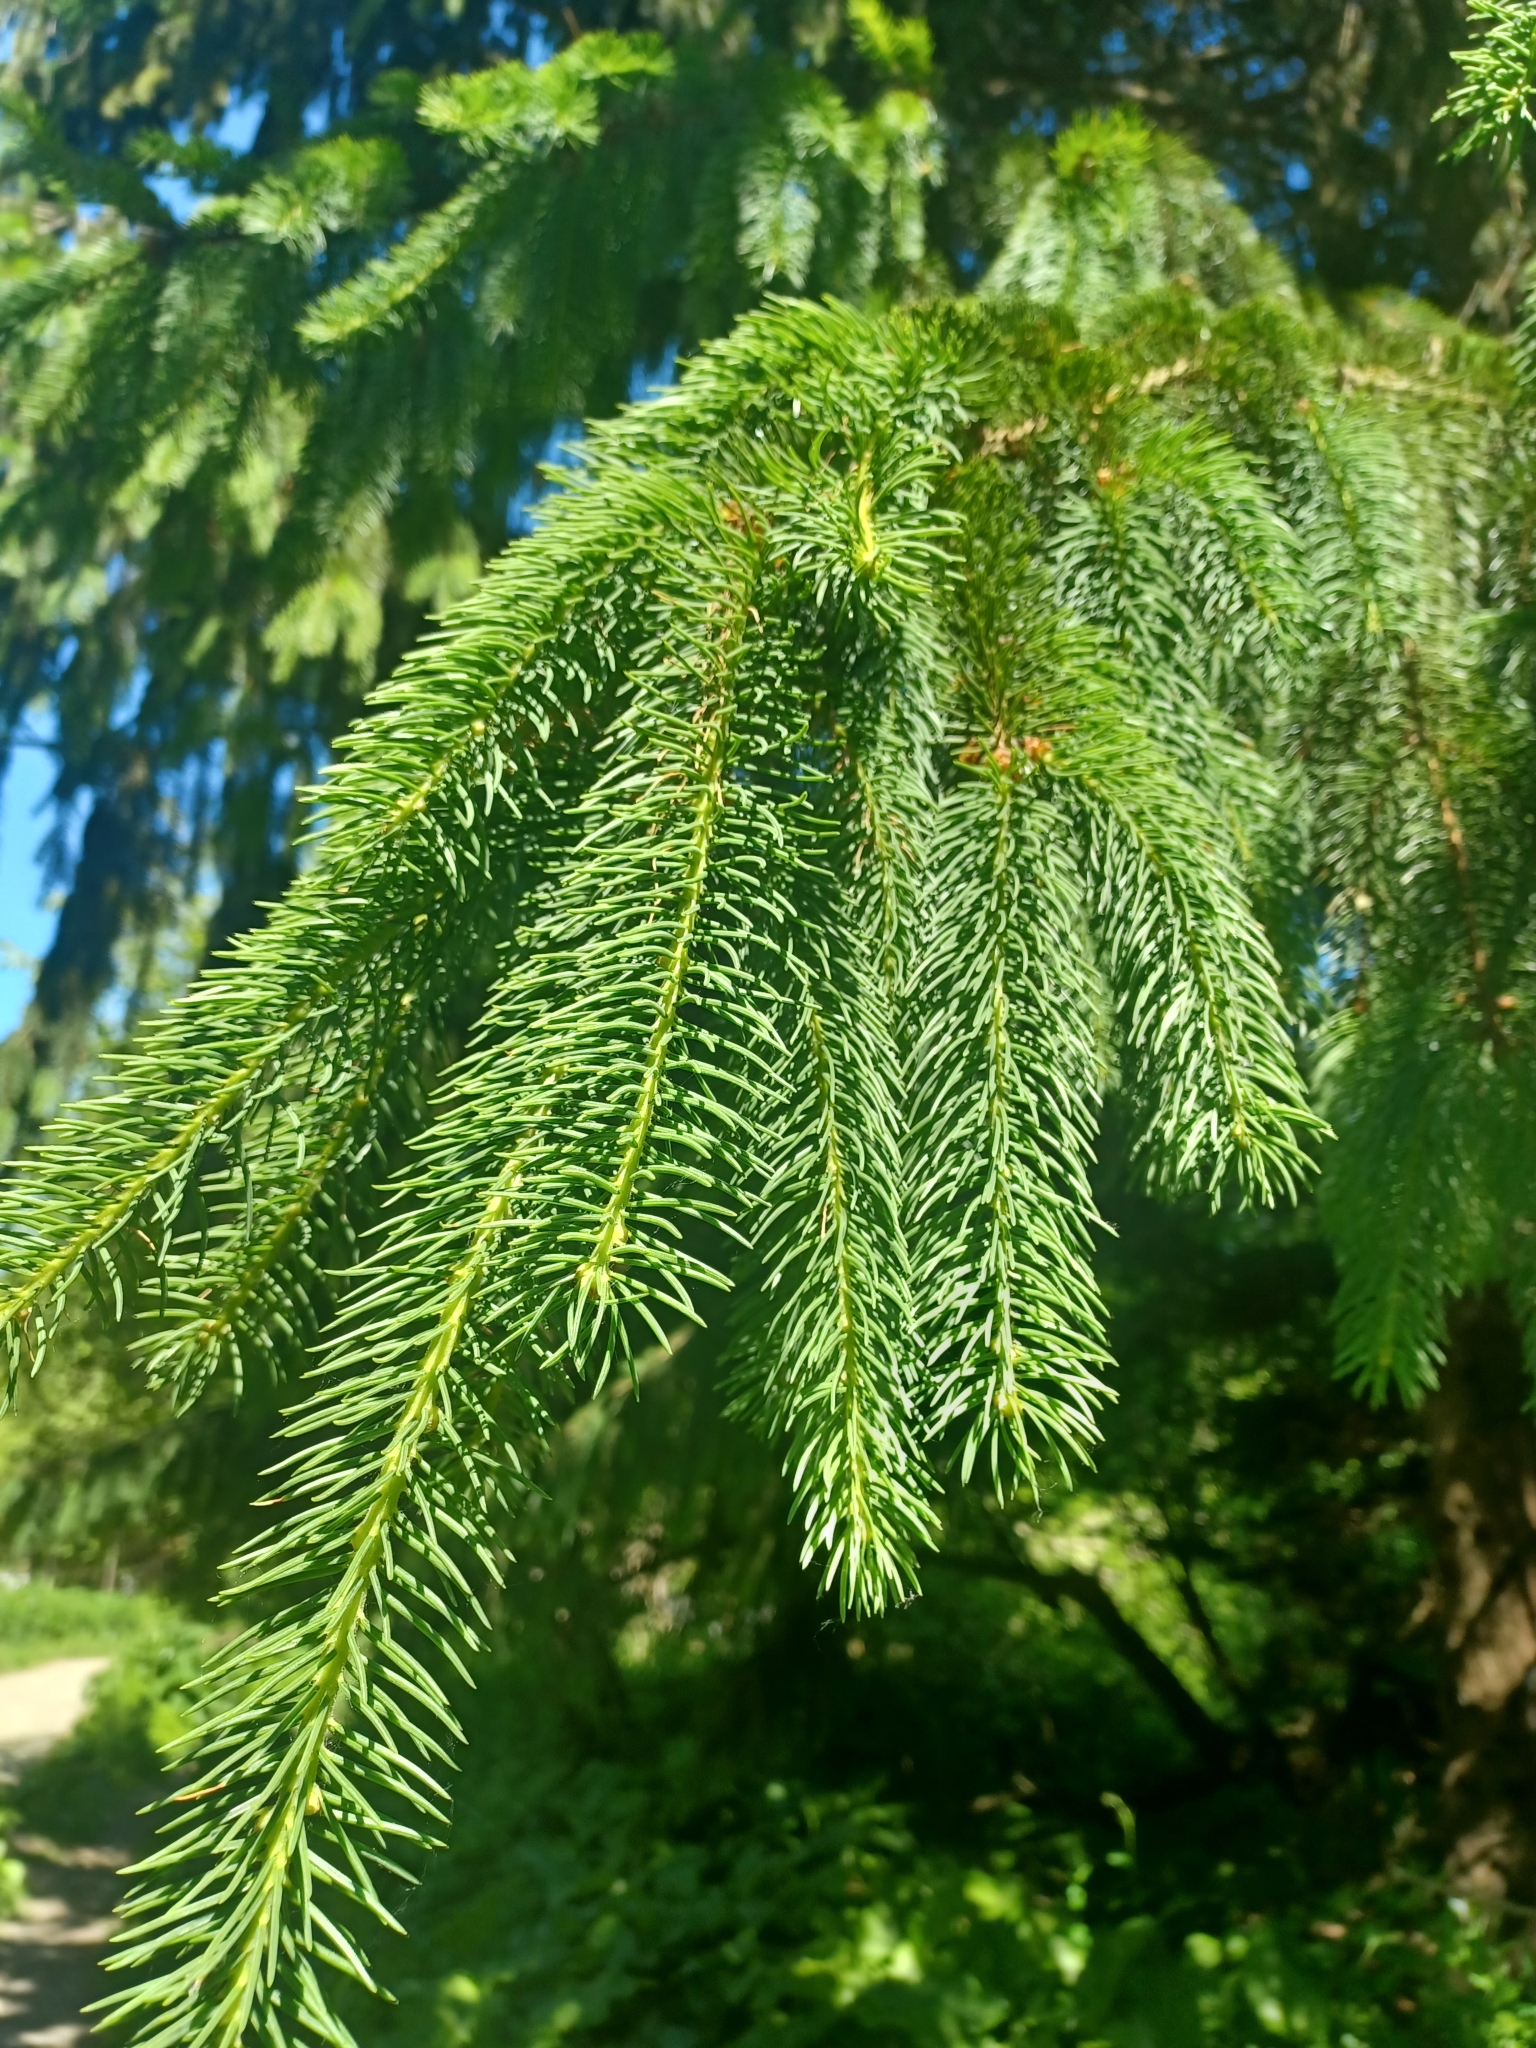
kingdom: Plantae
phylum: Tracheophyta
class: Pinopsida
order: Pinales
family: Pinaceae
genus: Picea
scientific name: Picea glauca
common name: White spruce
